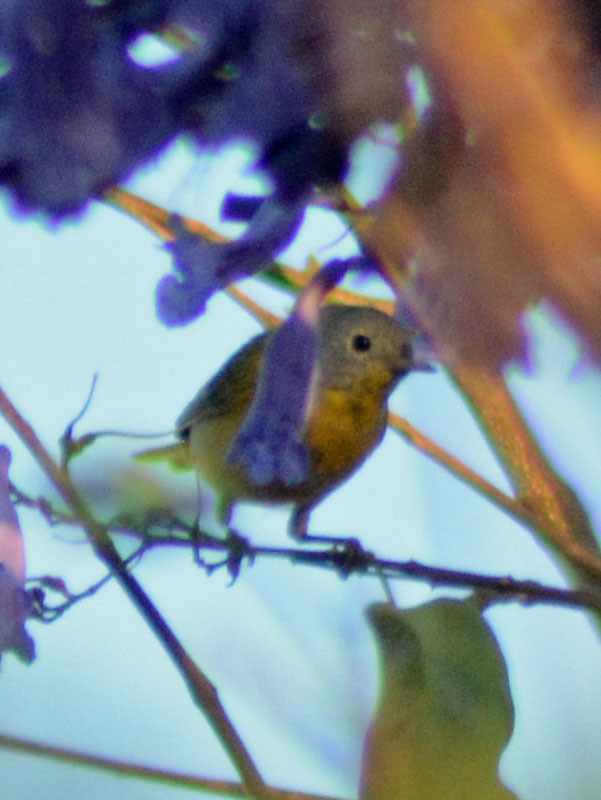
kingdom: Animalia
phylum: Chordata
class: Aves
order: Passeriformes
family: Parulidae
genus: Leiothlypis
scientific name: Leiothlypis ruficapilla
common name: Nashville warbler
